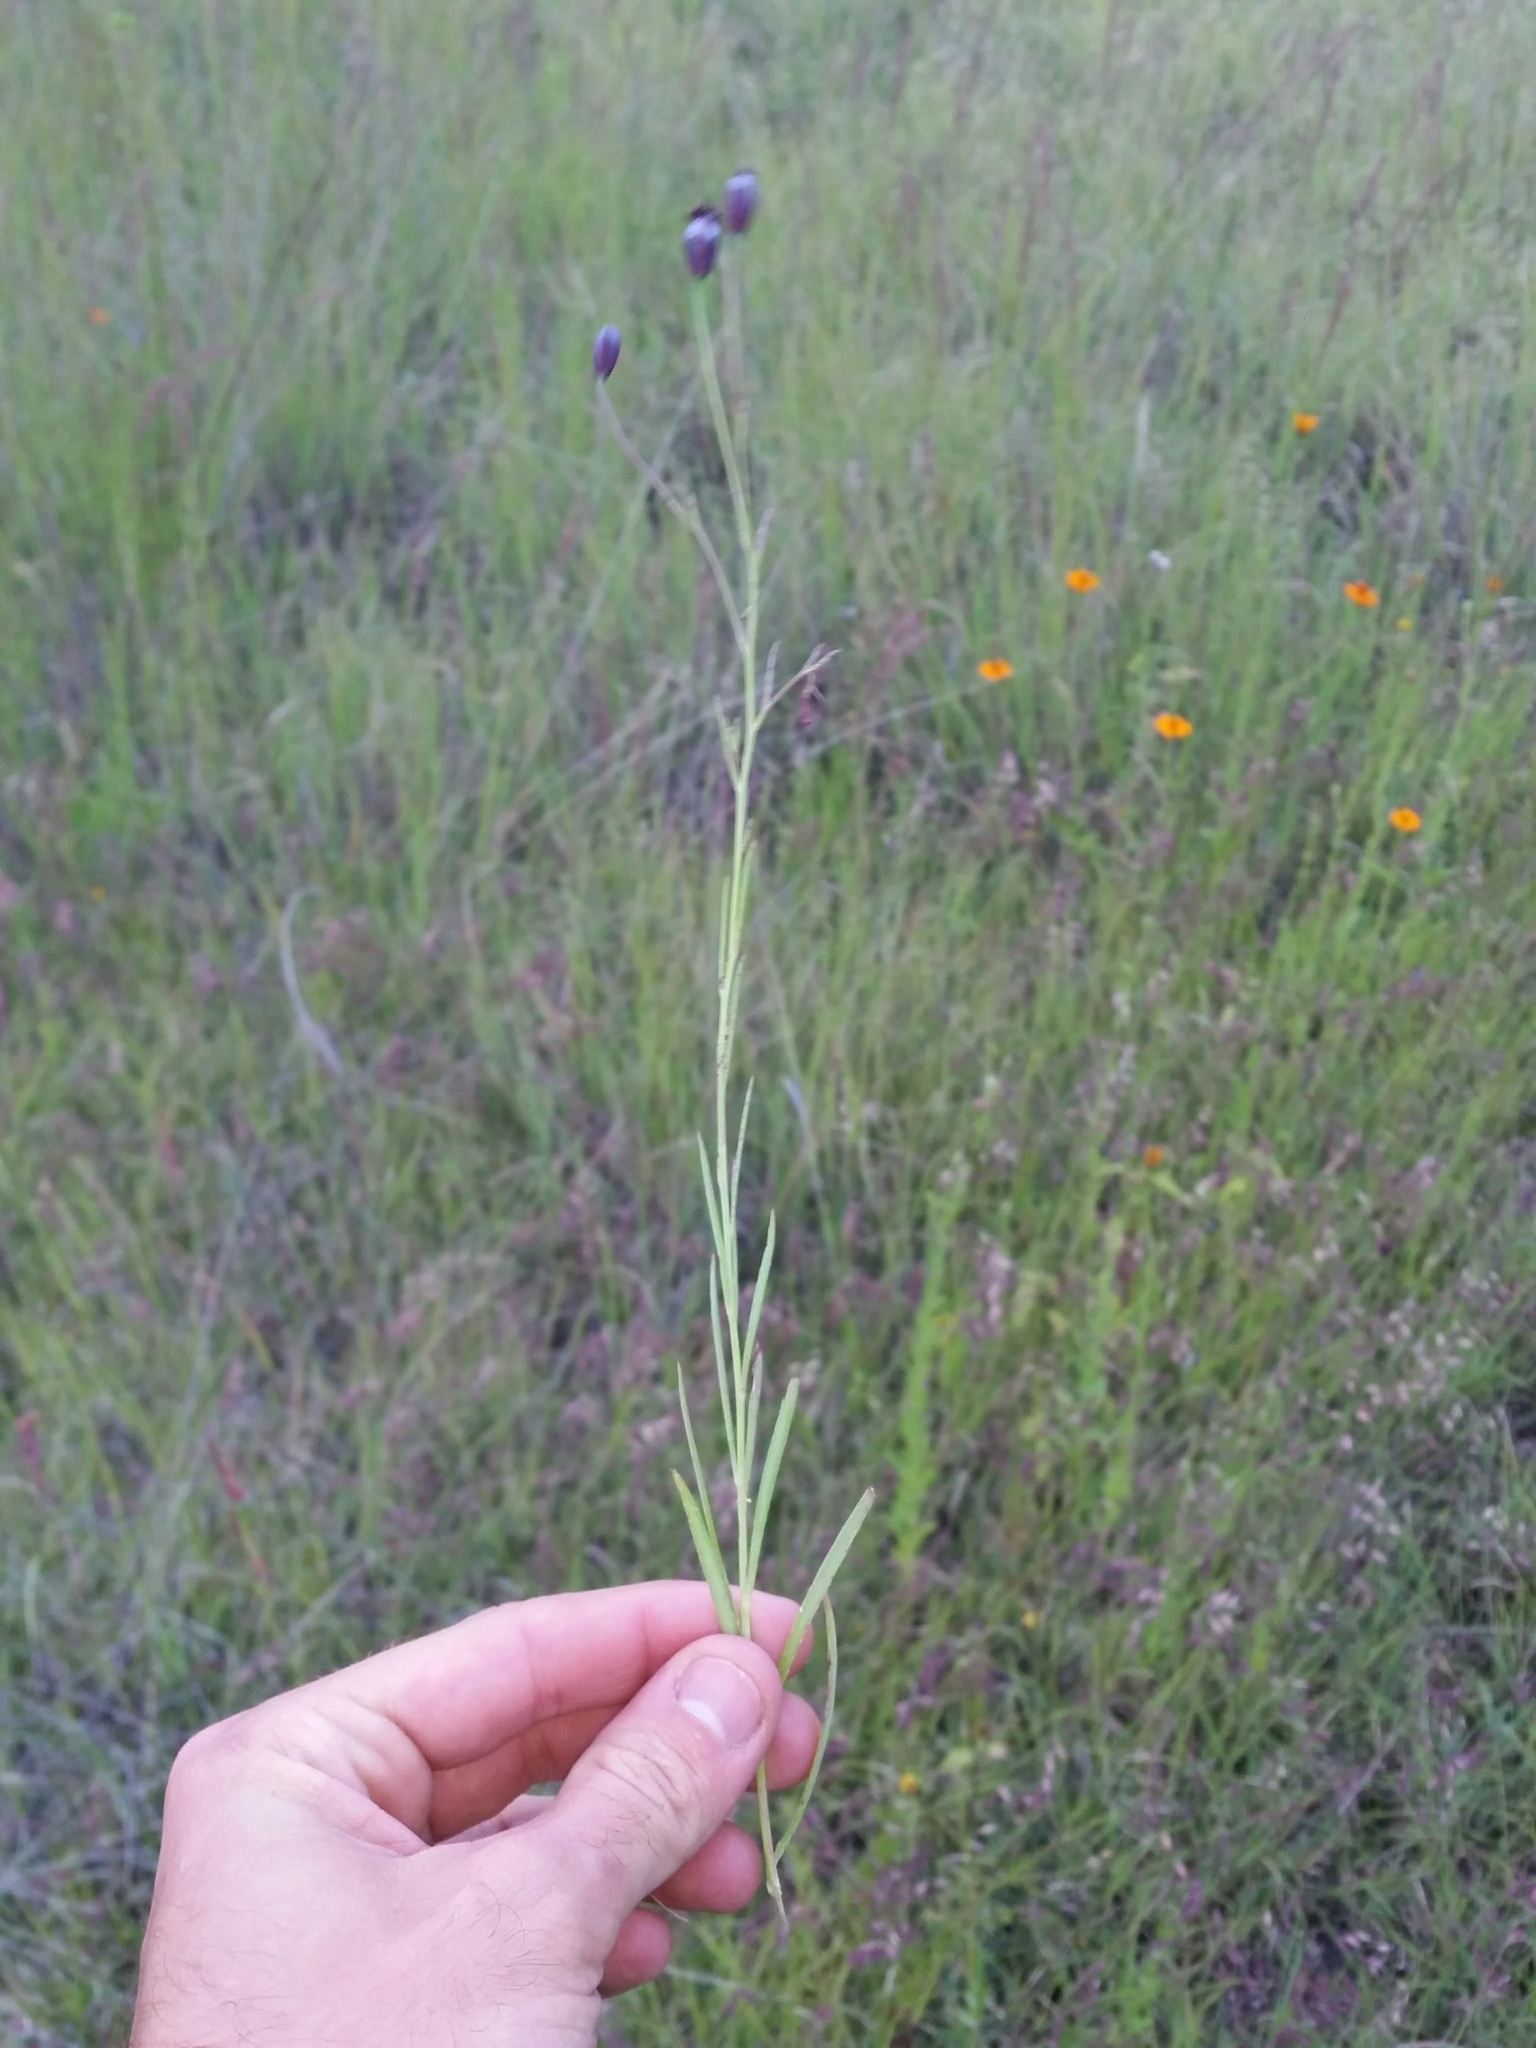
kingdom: Plantae
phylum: Tracheophyta
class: Magnoliopsida
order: Asterales
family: Asteraceae
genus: Porophyllum
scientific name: Porophyllum linaria
